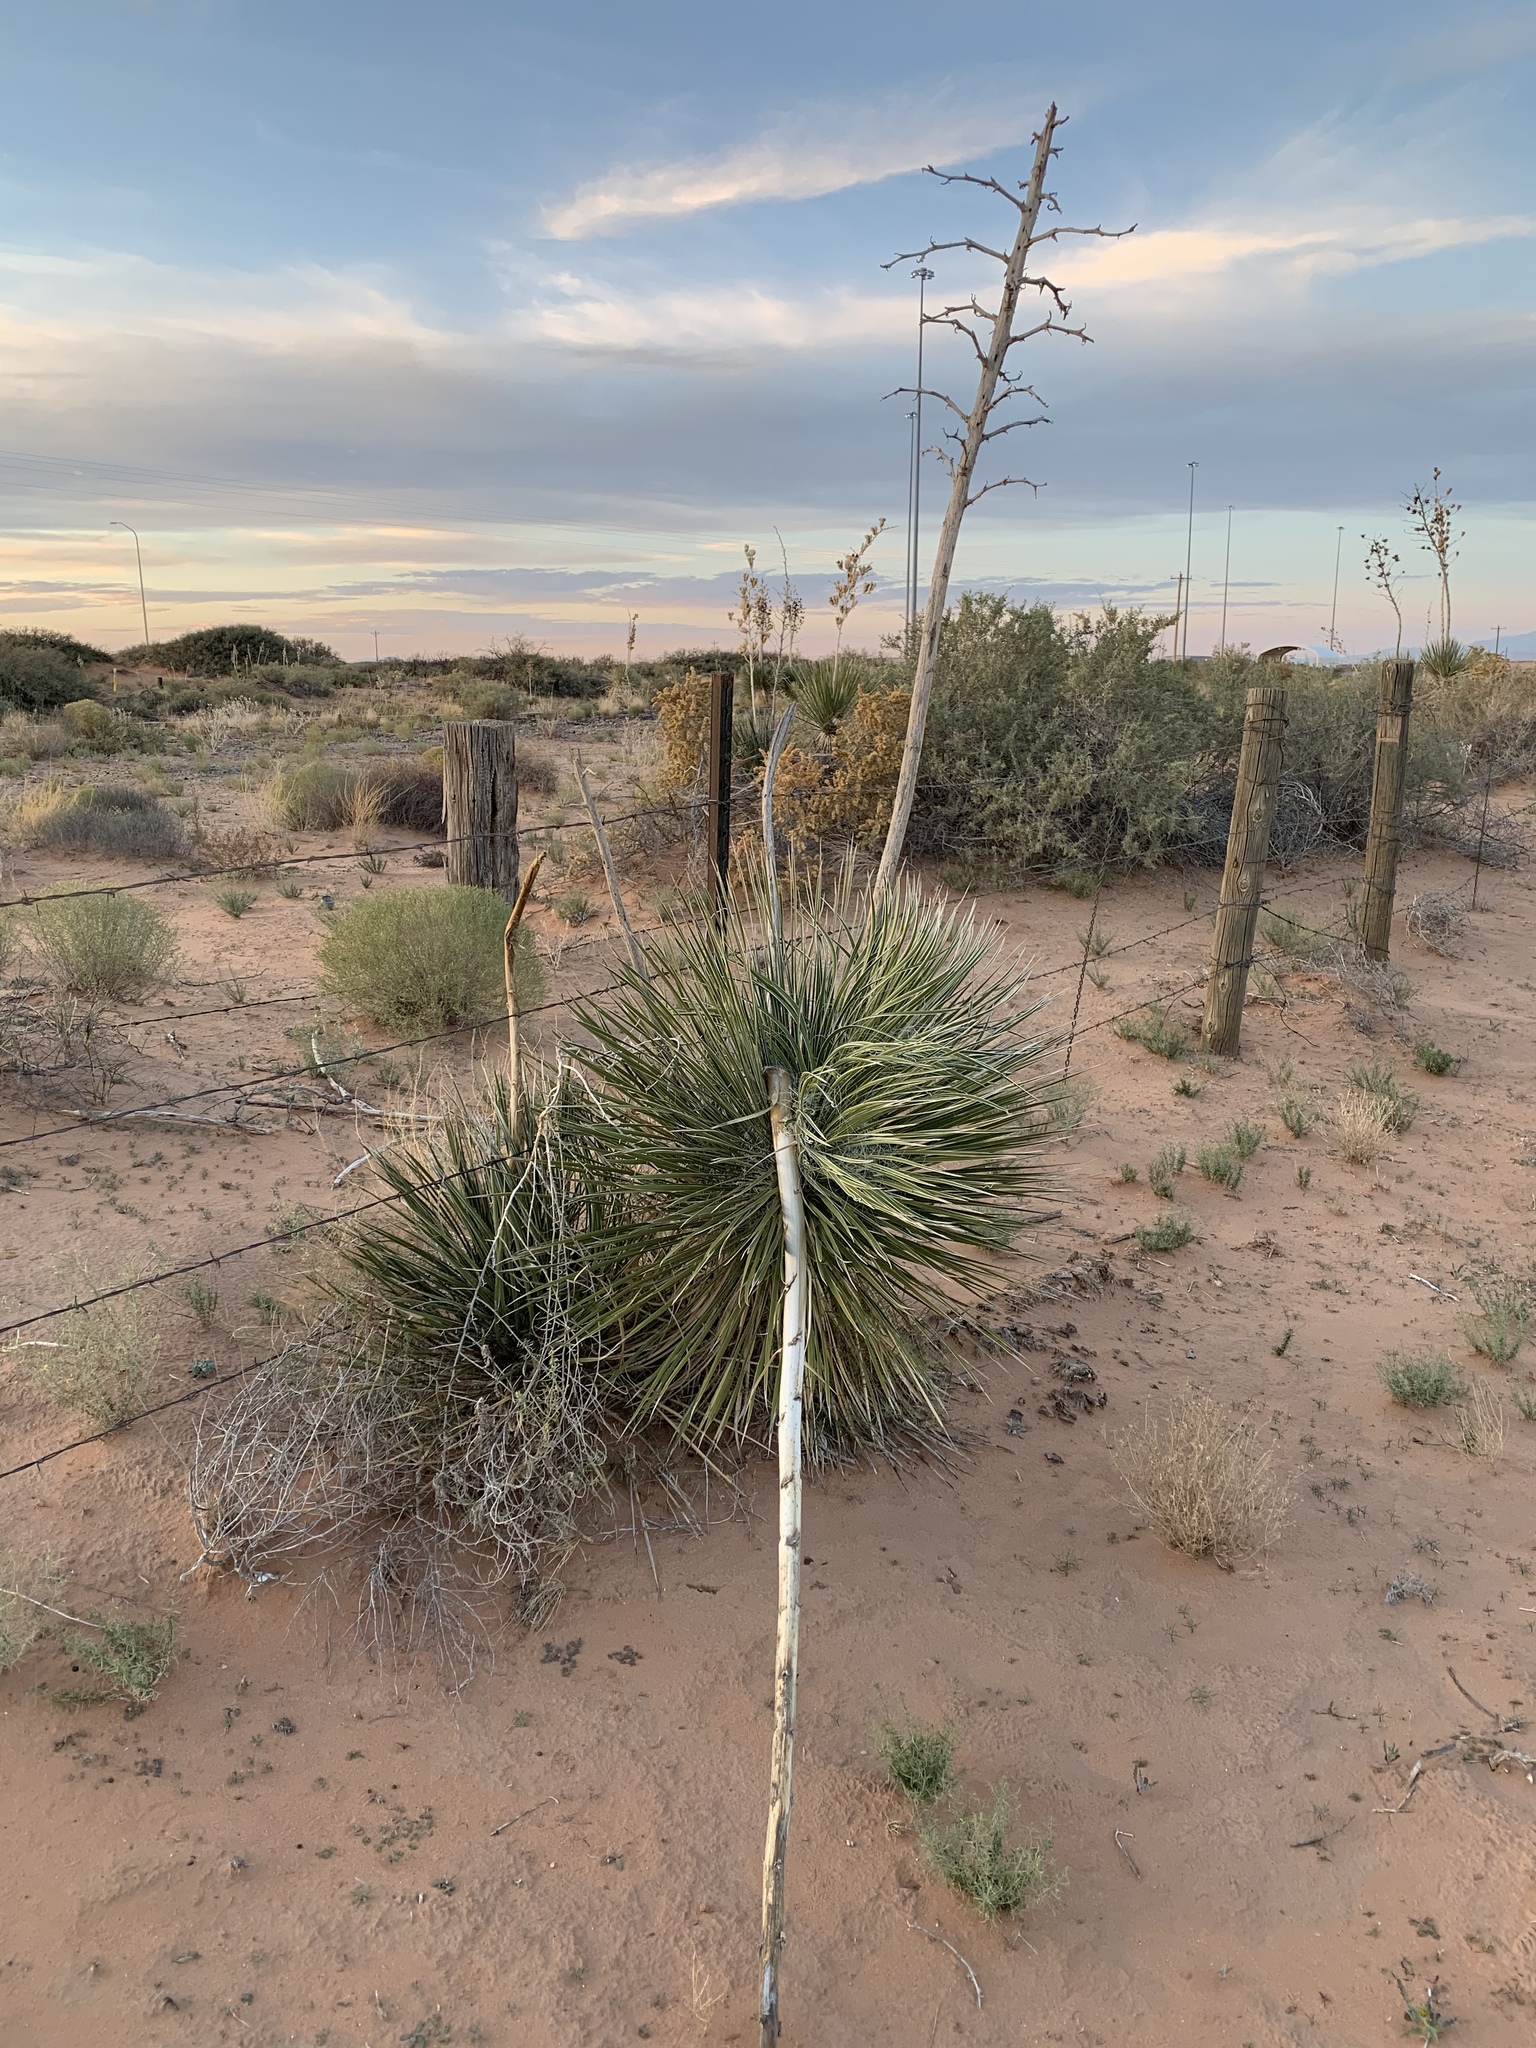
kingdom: Plantae
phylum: Tracheophyta
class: Liliopsida
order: Asparagales
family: Asparagaceae
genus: Yucca
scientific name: Yucca elata
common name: Palmella
